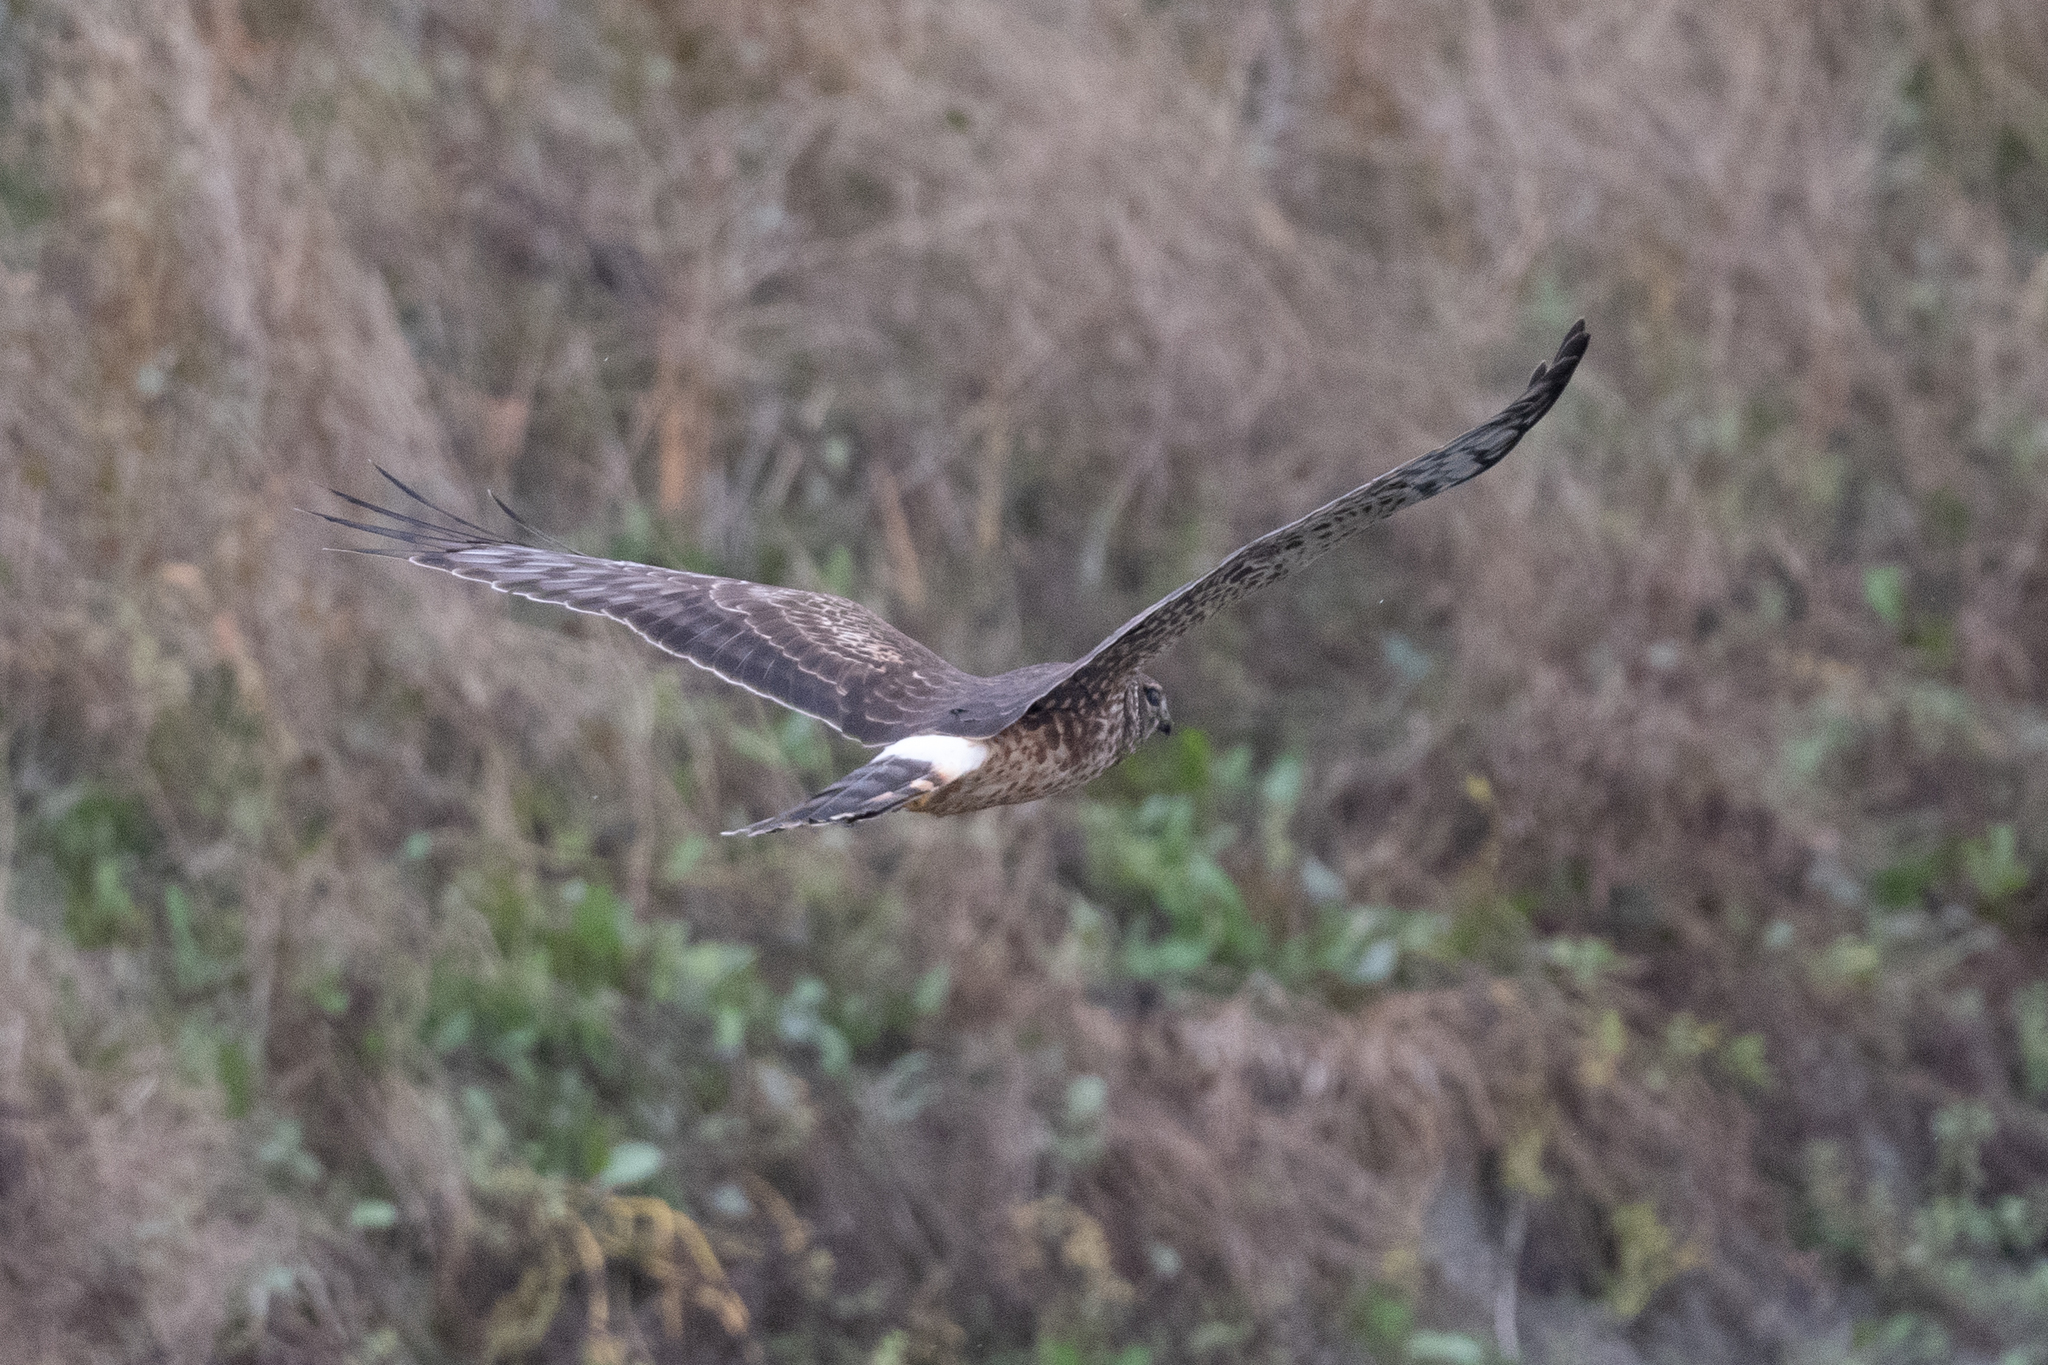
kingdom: Animalia
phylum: Chordata
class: Aves
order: Accipitriformes
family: Accipitridae
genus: Circus
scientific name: Circus cyaneus
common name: Hen harrier
